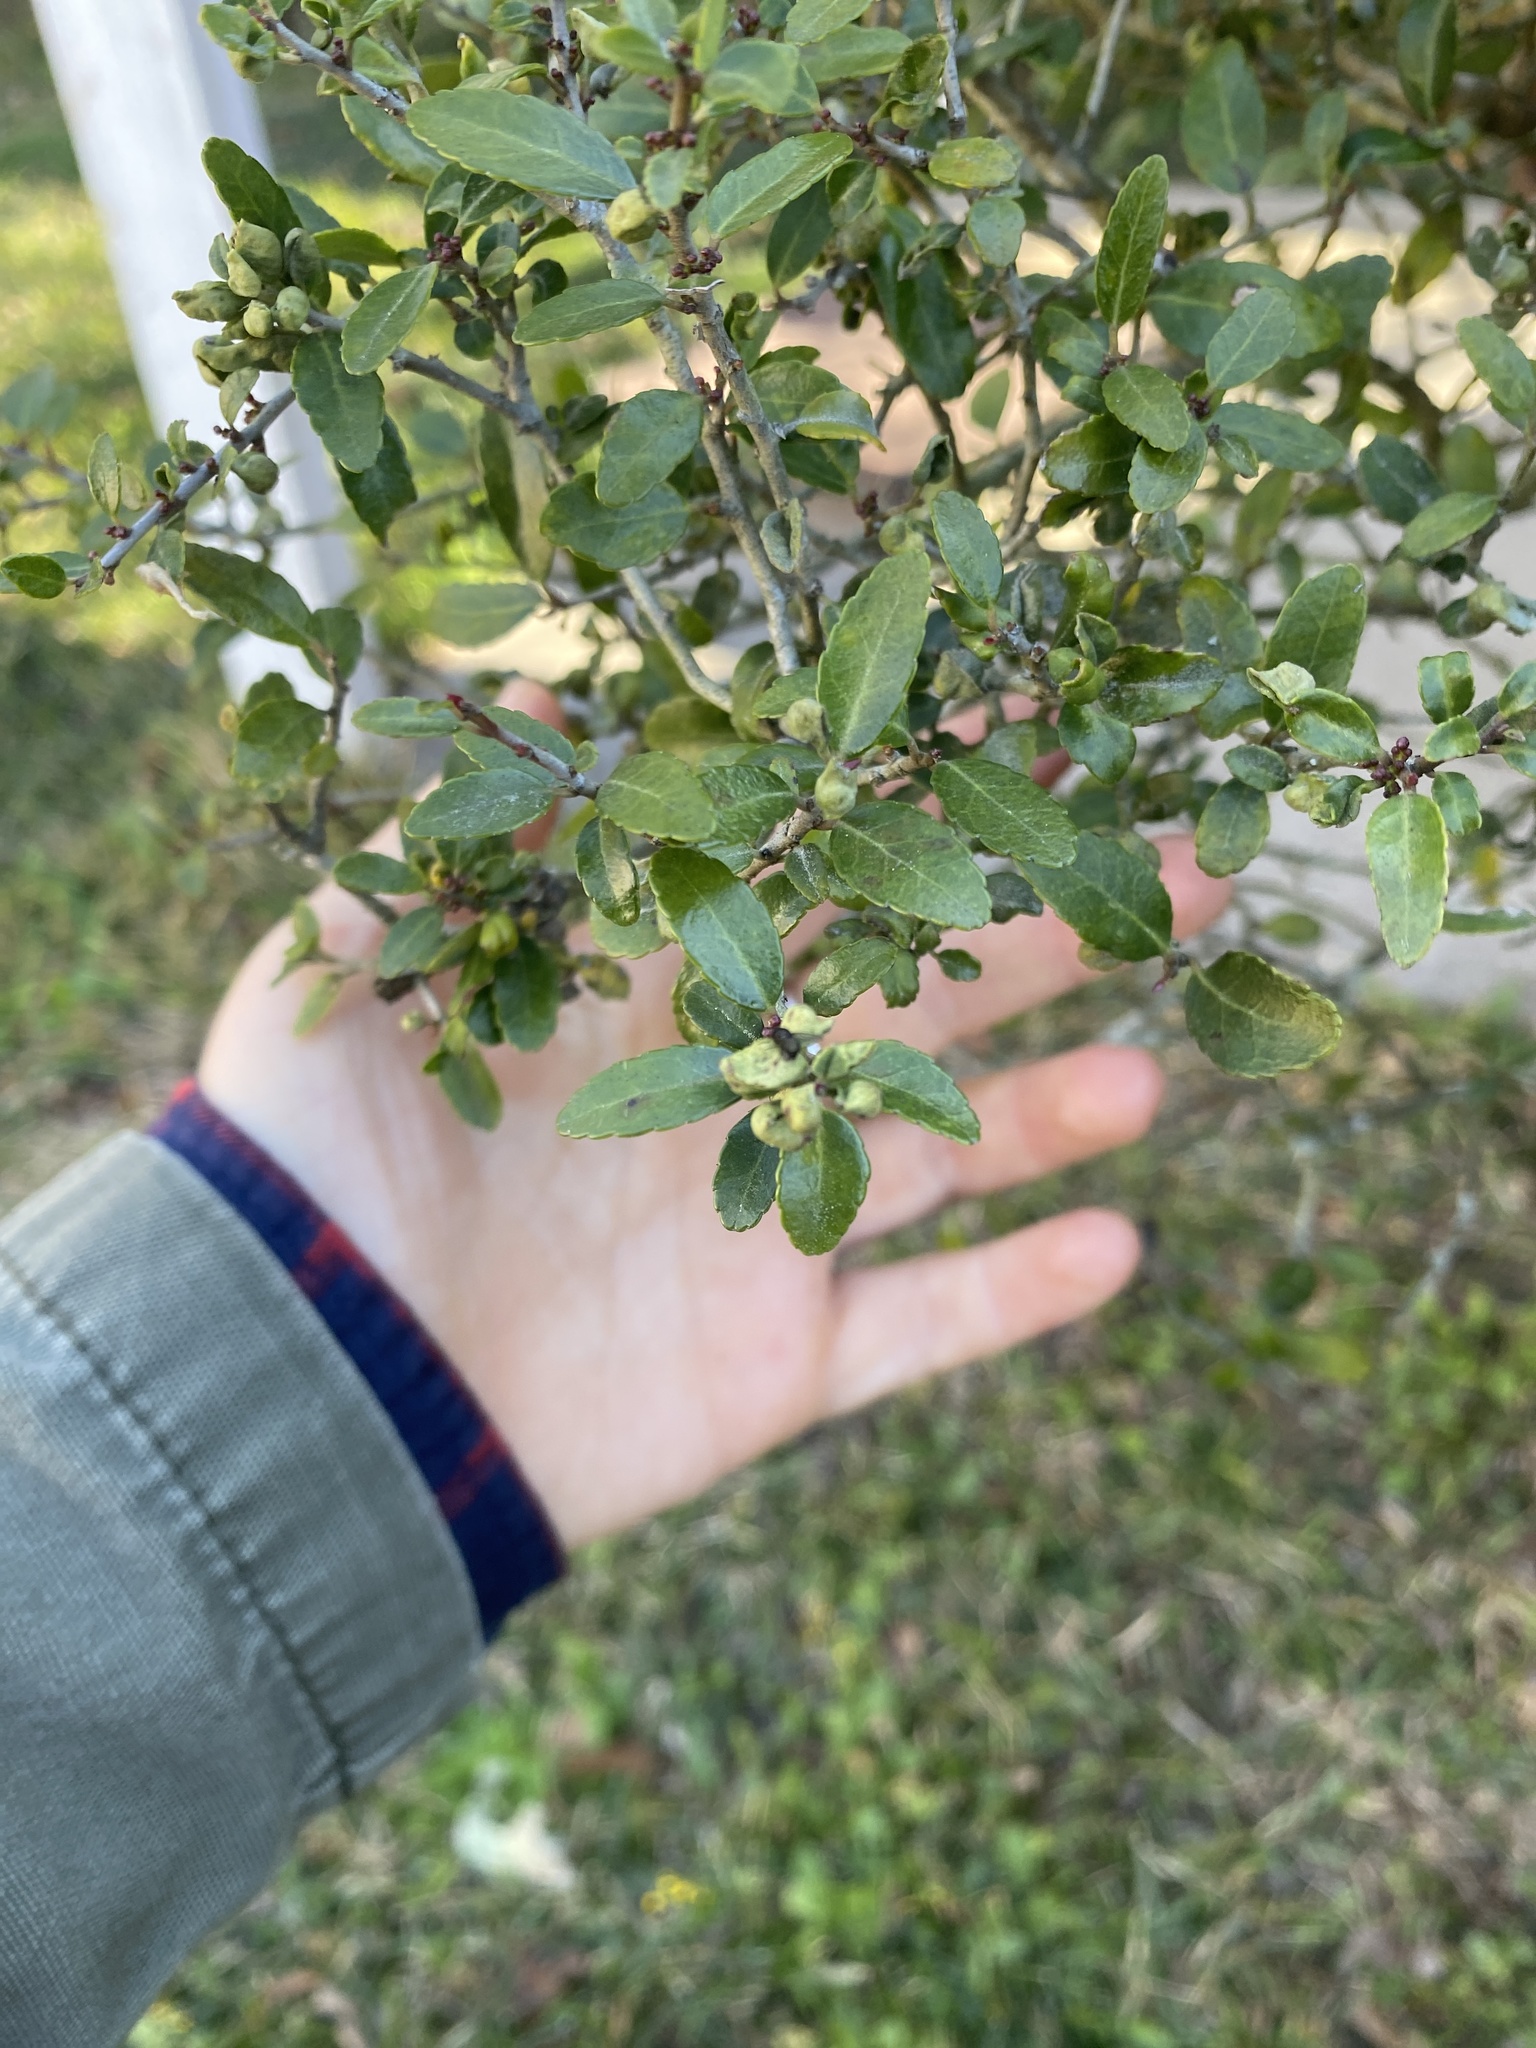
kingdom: Plantae
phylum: Tracheophyta
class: Magnoliopsida
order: Aquifoliales
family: Aquifoliaceae
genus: Ilex
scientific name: Ilex vomitoria
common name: Yaupon holly
